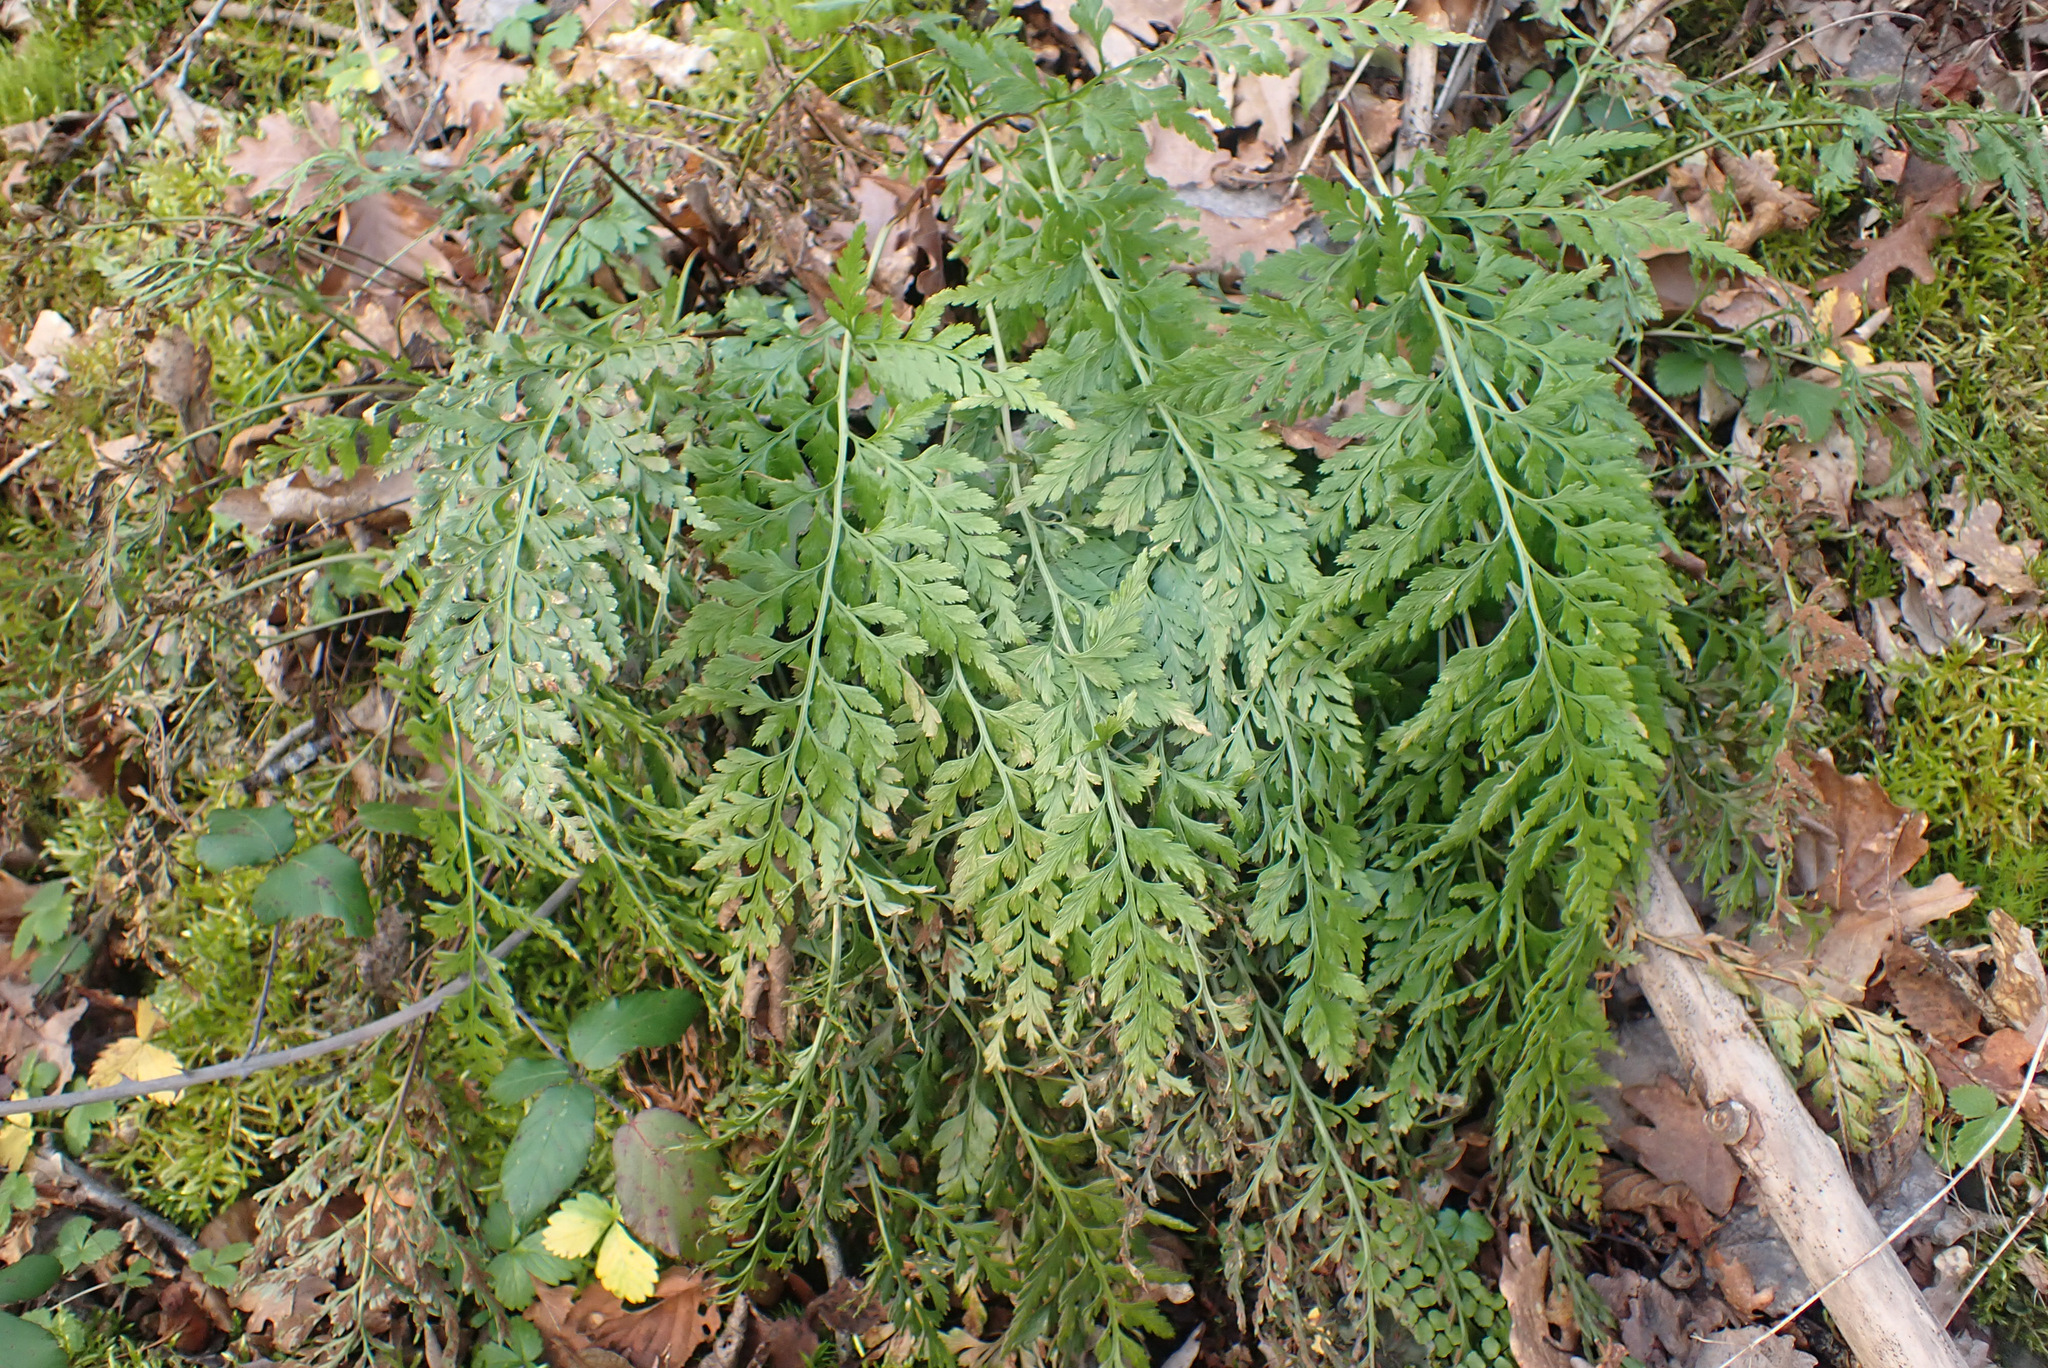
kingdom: Plantae
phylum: Tracheophyta
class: Polypodiopsida
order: Polypodiales
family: Aspleniaceae
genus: Asplenium
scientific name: Asplenium adiantum-nigrum
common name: Black spleenwort
